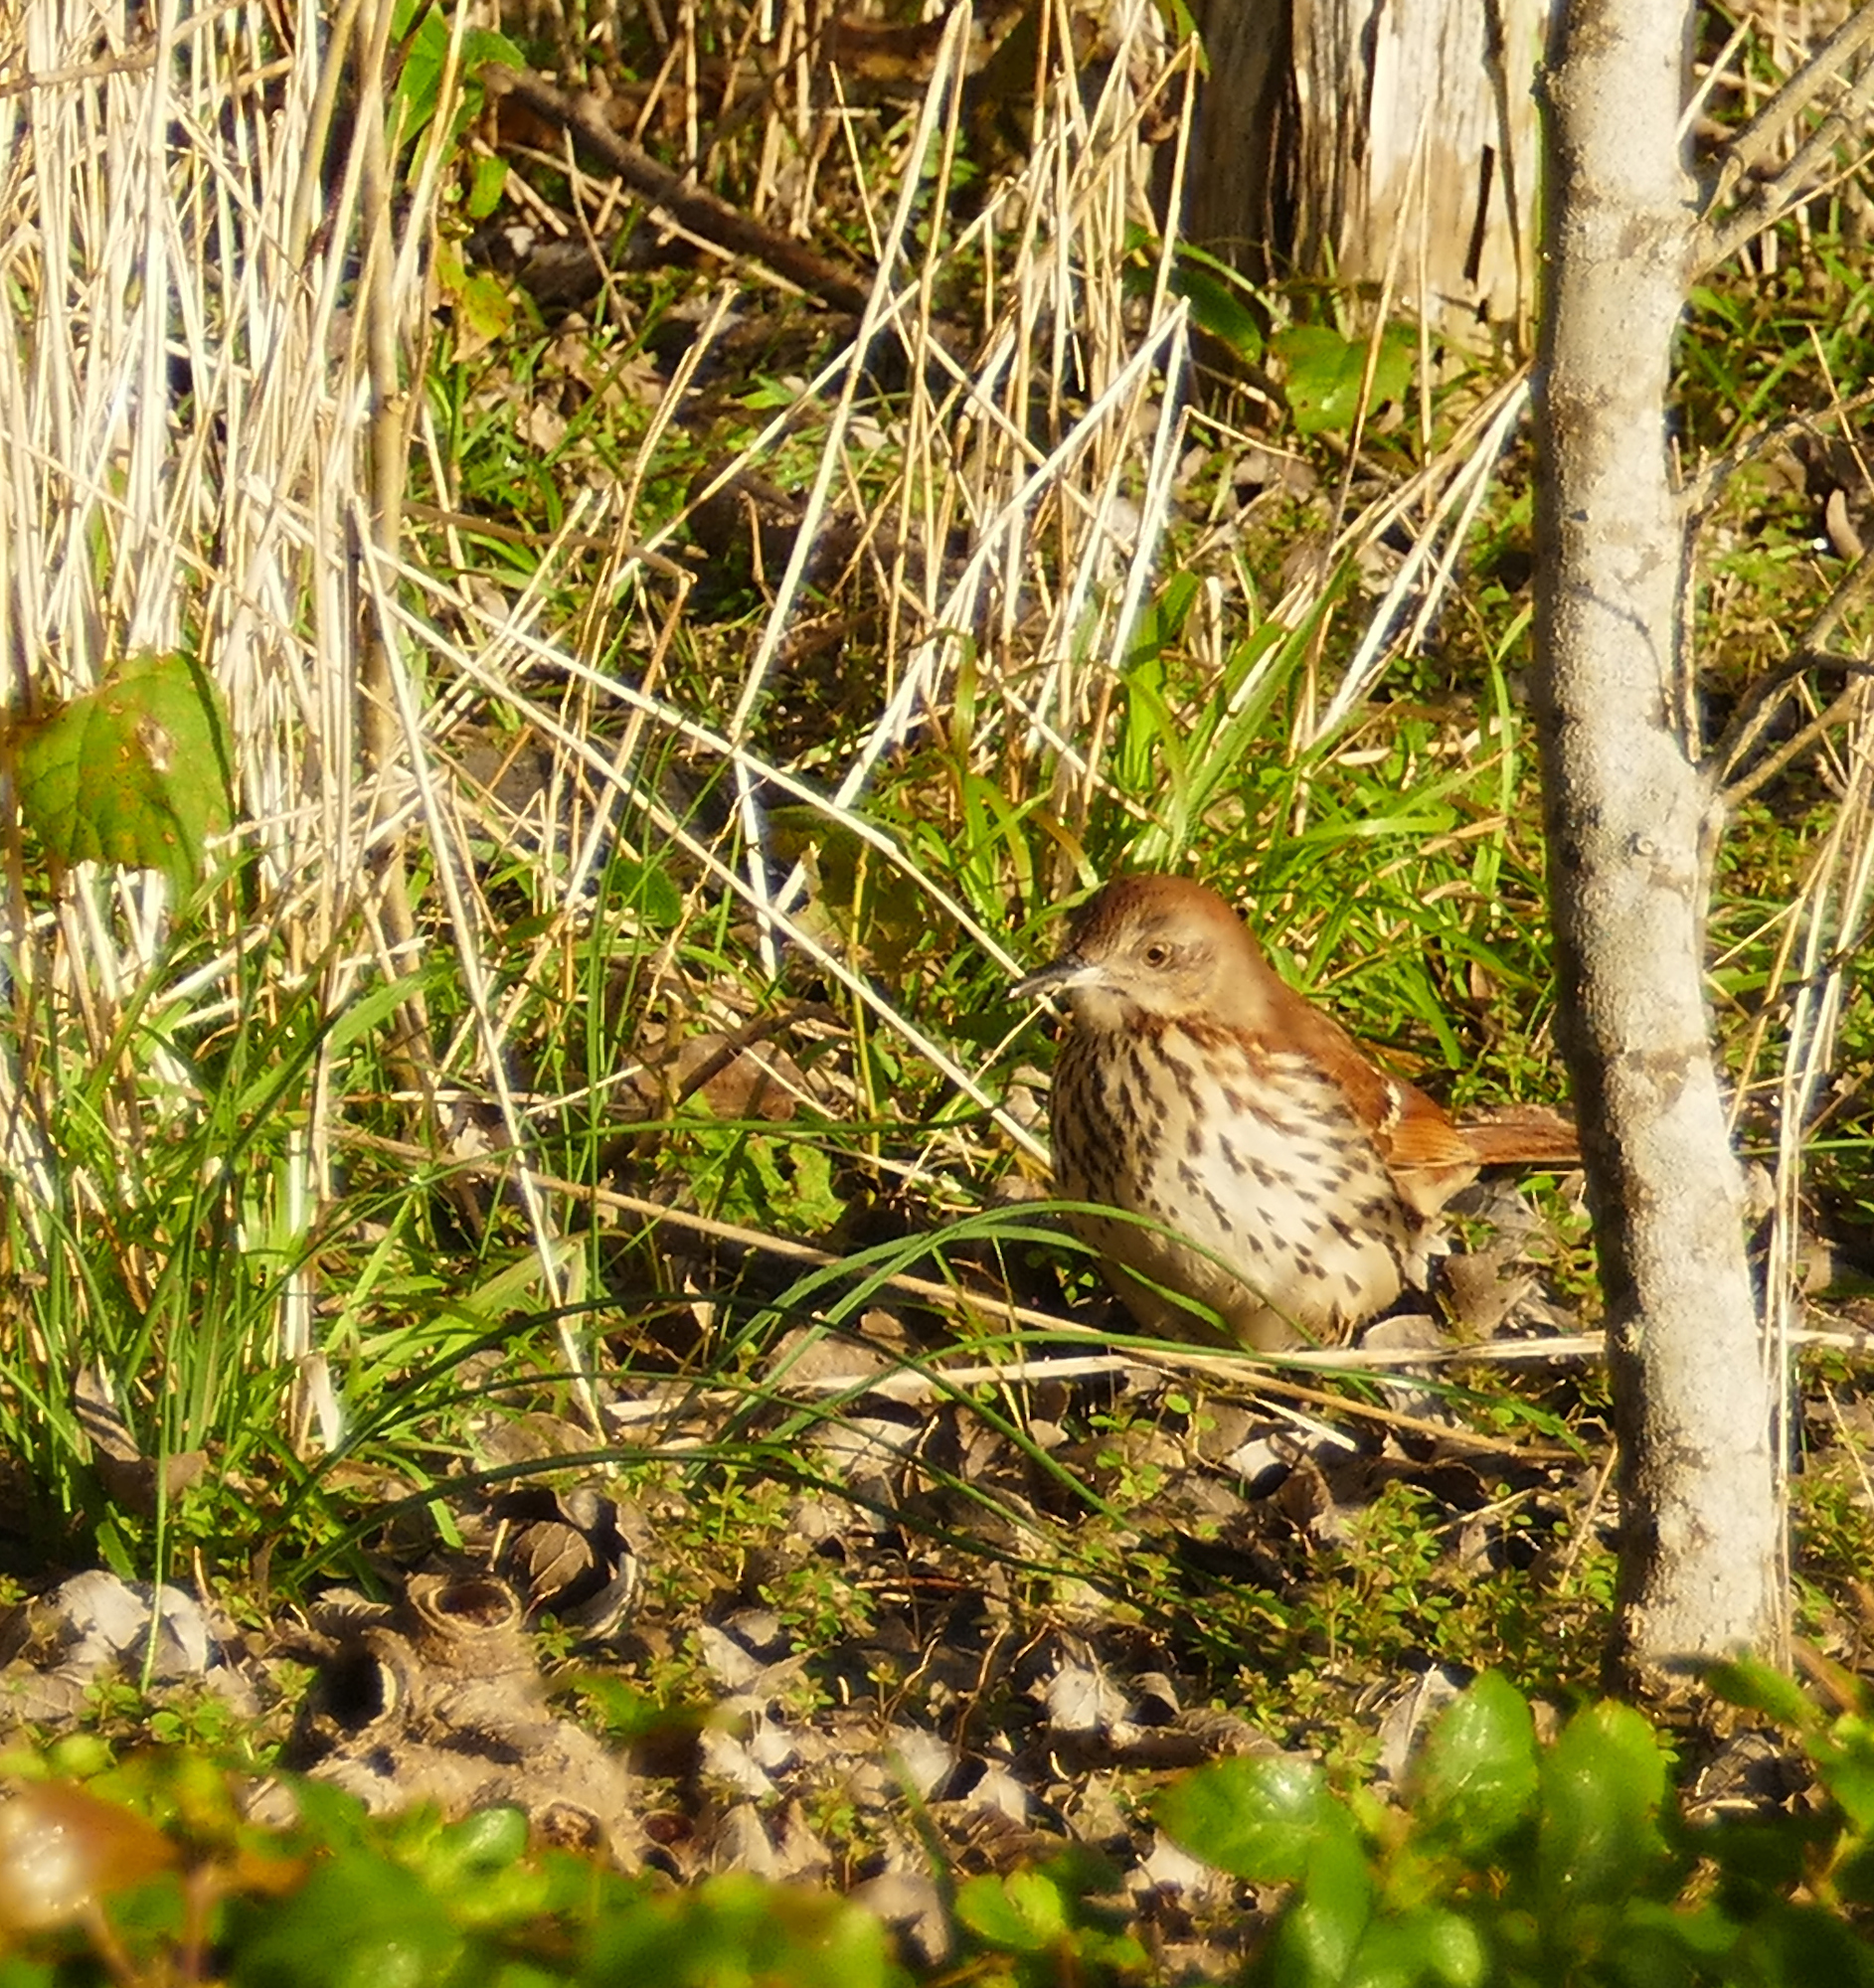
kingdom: Animalia
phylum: Chordata
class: Aves
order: Passeriformes
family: Mimidae
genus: Toxostoma
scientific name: Toxostoma rufum
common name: Brown thrasher
